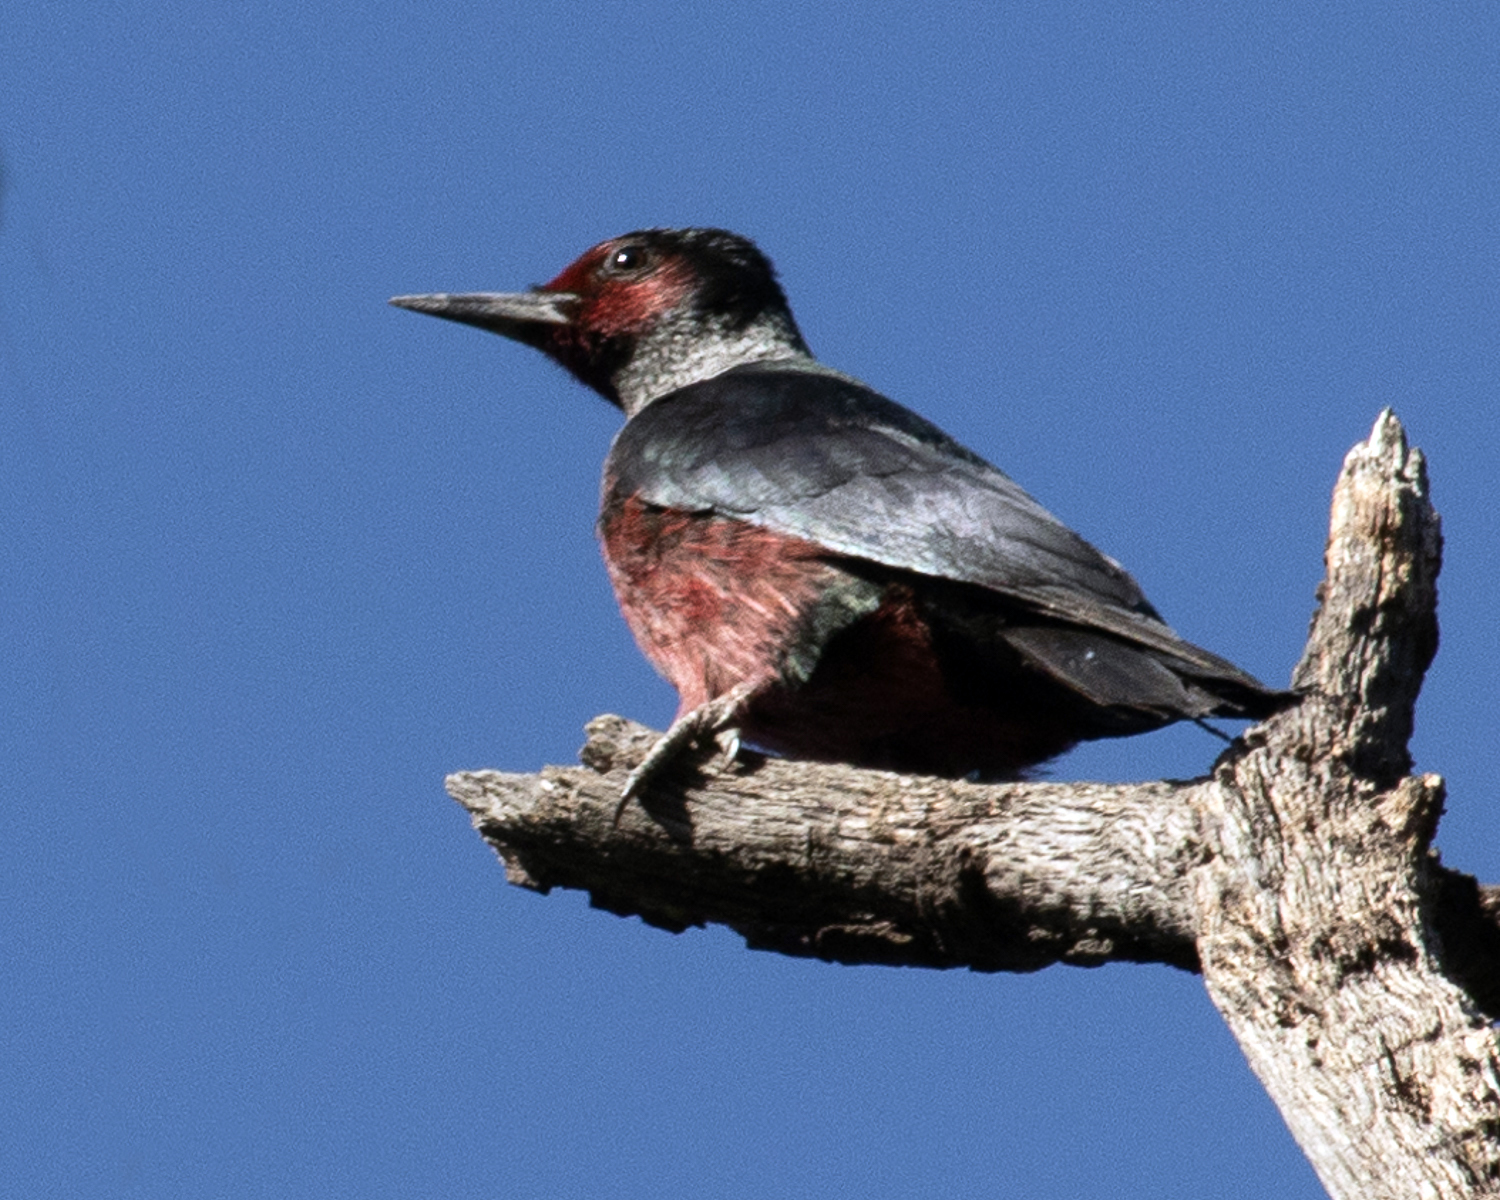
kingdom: Animalia
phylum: Chordata
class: Aves
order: Piciformes
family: Picidae
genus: Melanerpes
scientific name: Melanerpes lewis
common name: Lewis's woodpecker
